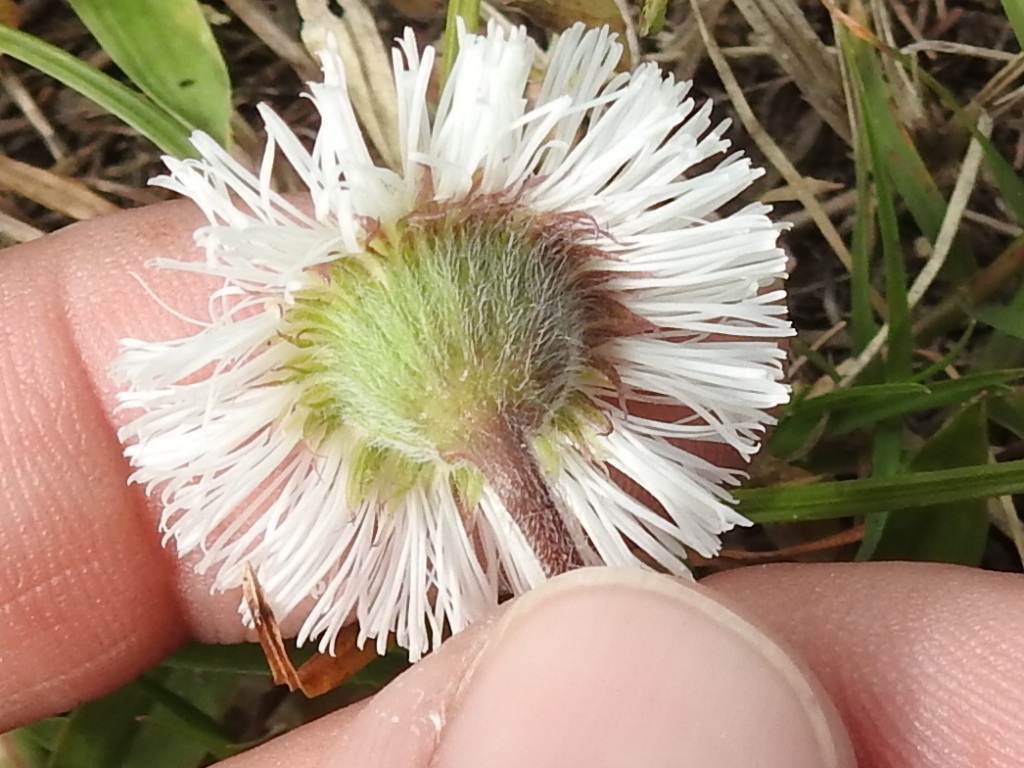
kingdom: Plantae
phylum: Tracheophyta
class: Magnoliopsida
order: Asterales
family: Asteraceae
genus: Erigeron
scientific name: Erigeron procumbens
